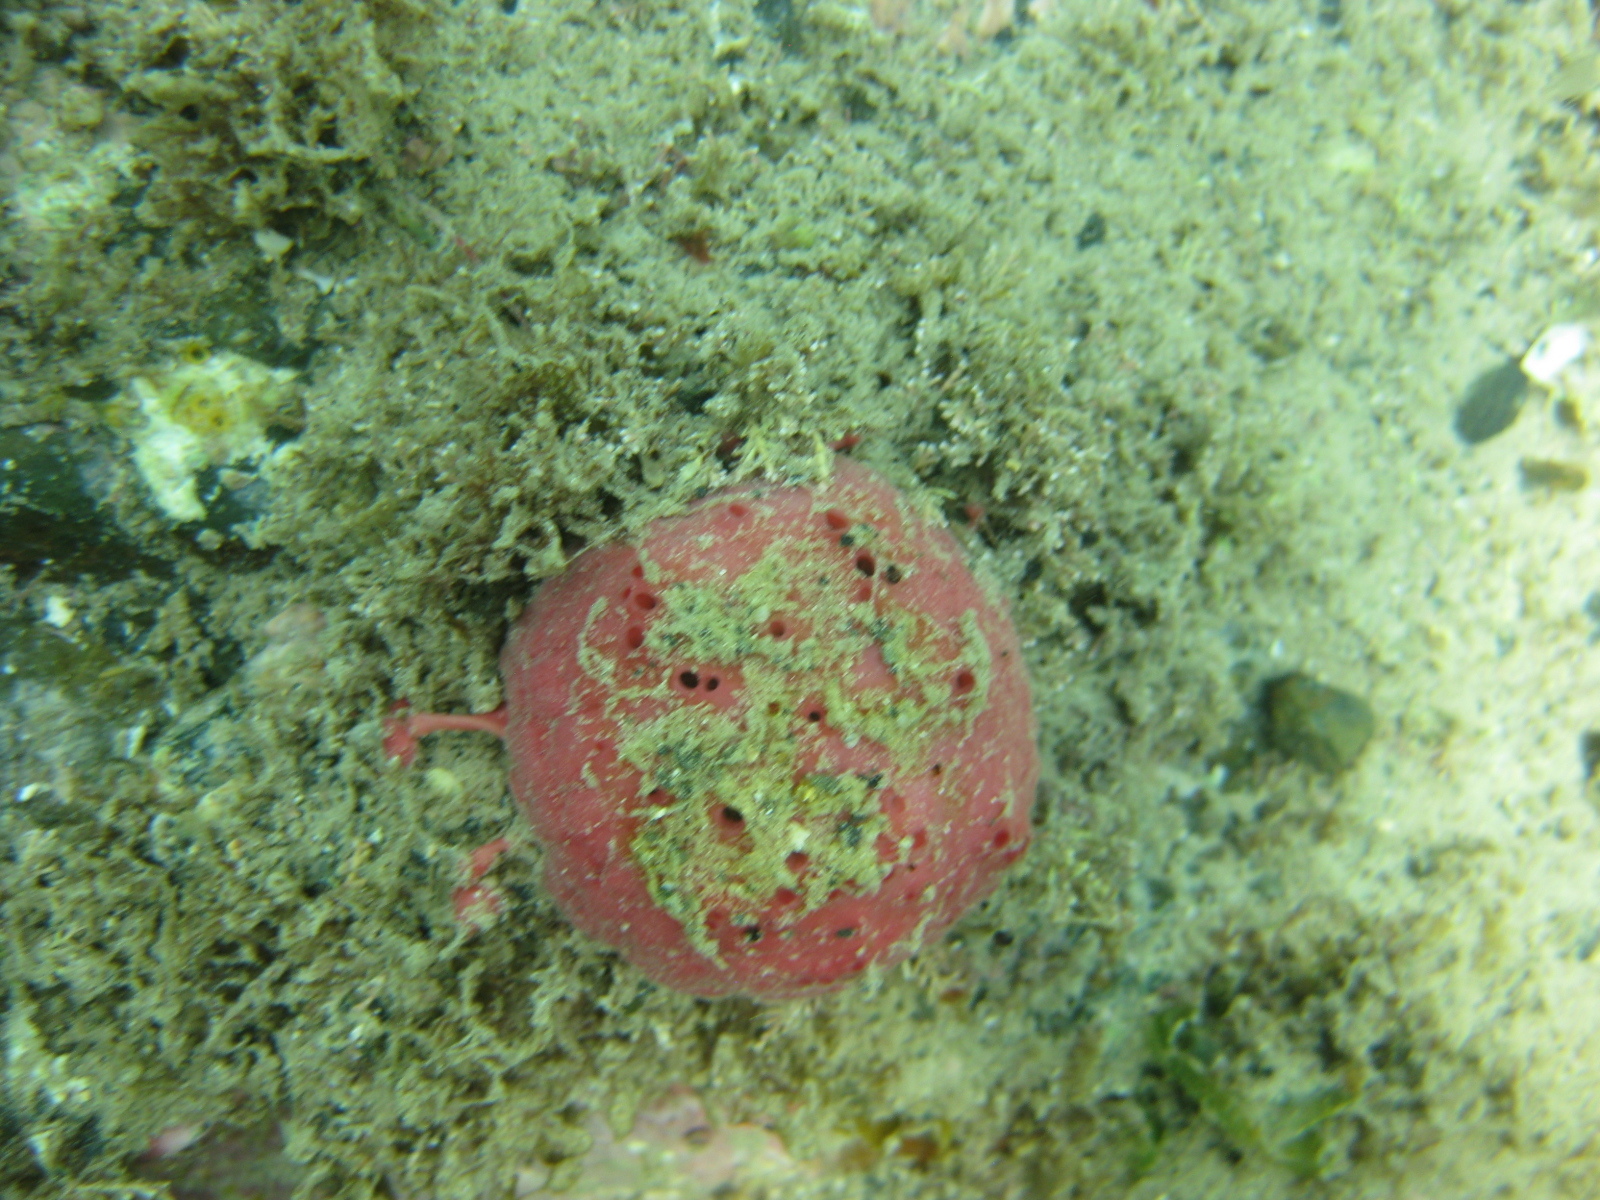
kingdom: Animalia
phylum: Porifera
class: Demospongiae
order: Tethyida
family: Tethyidae
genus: Tethya
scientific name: Tethya bergquistae
